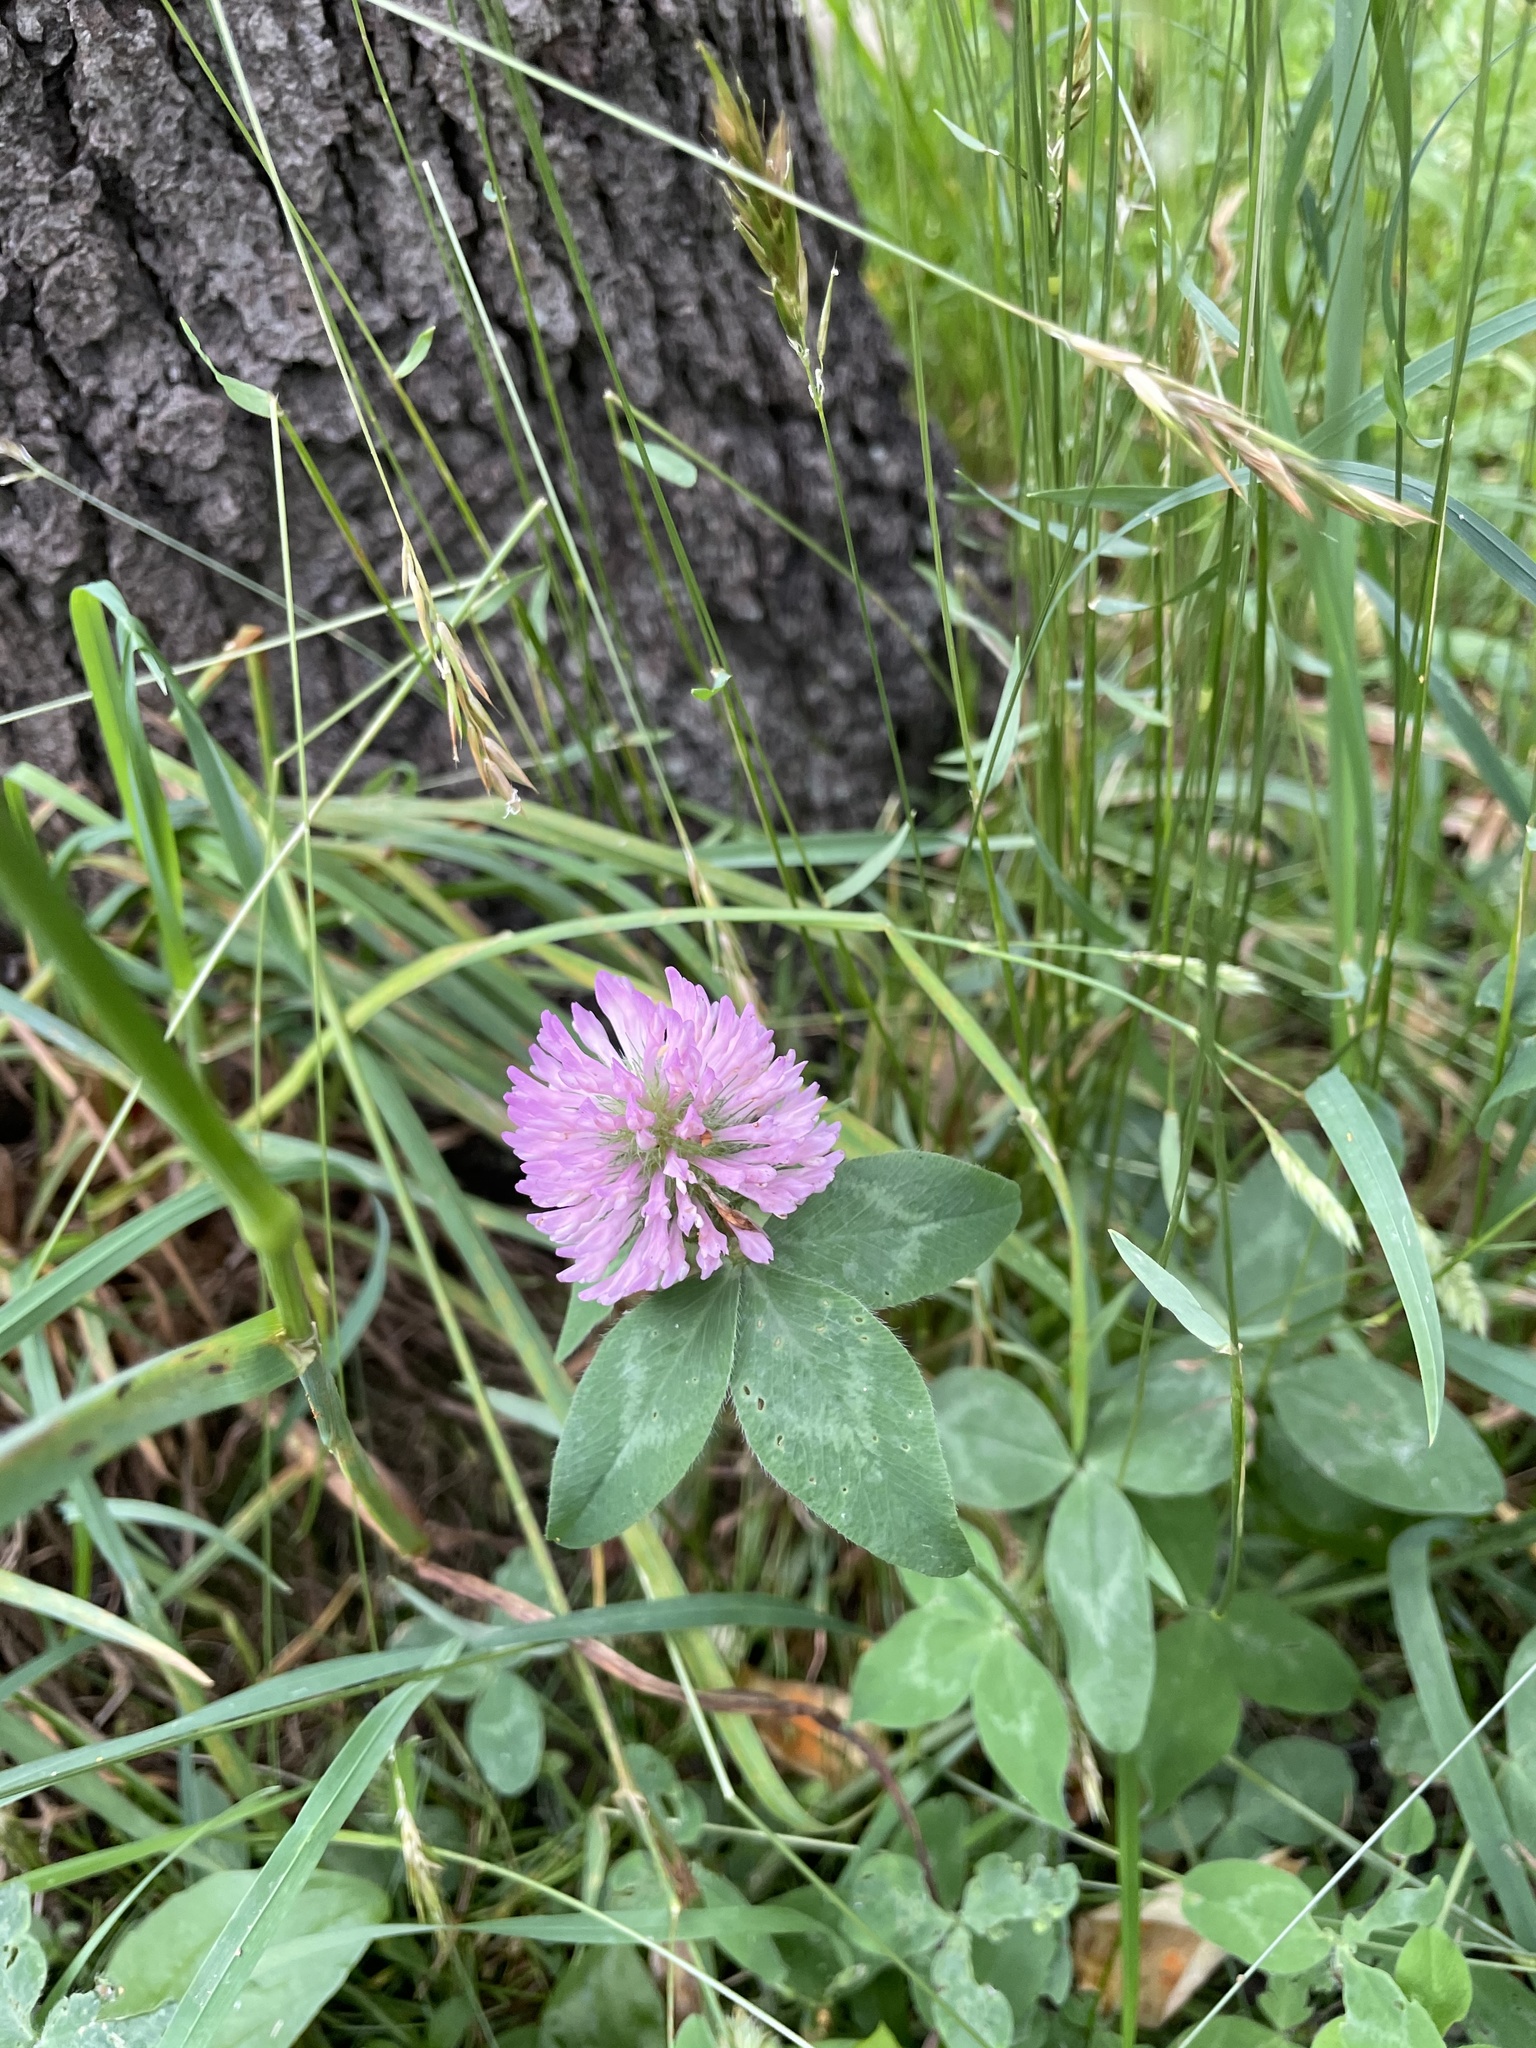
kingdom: Plantae
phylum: Tracheophyta
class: Magnoliopsida
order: Fabales
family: Fabaceae
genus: Trifolium
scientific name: Trifolium pratense
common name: Red clover
